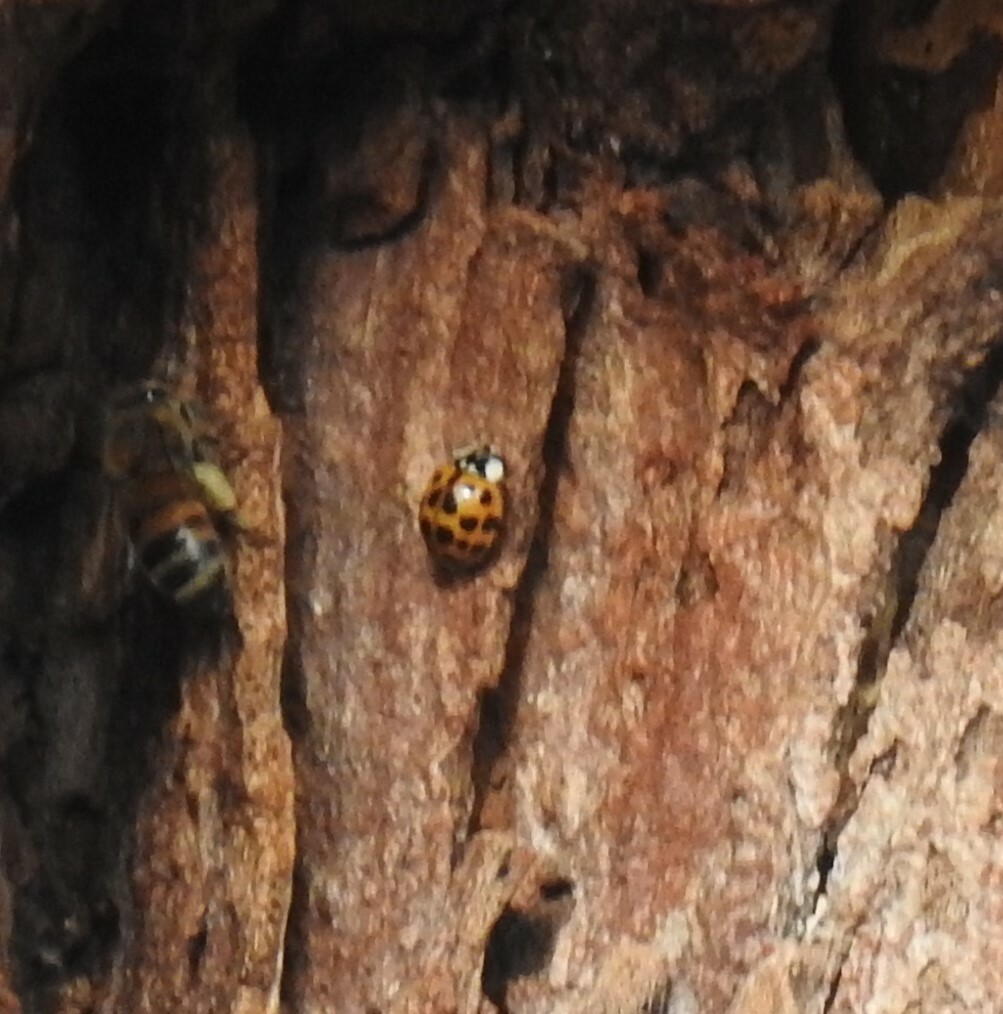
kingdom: Animalia
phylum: Arthropoda
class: Insecta
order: Coleoptera
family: Coccinellidae
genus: Harmonia
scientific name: Harmonia axyridis
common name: Harlequin ladybird
